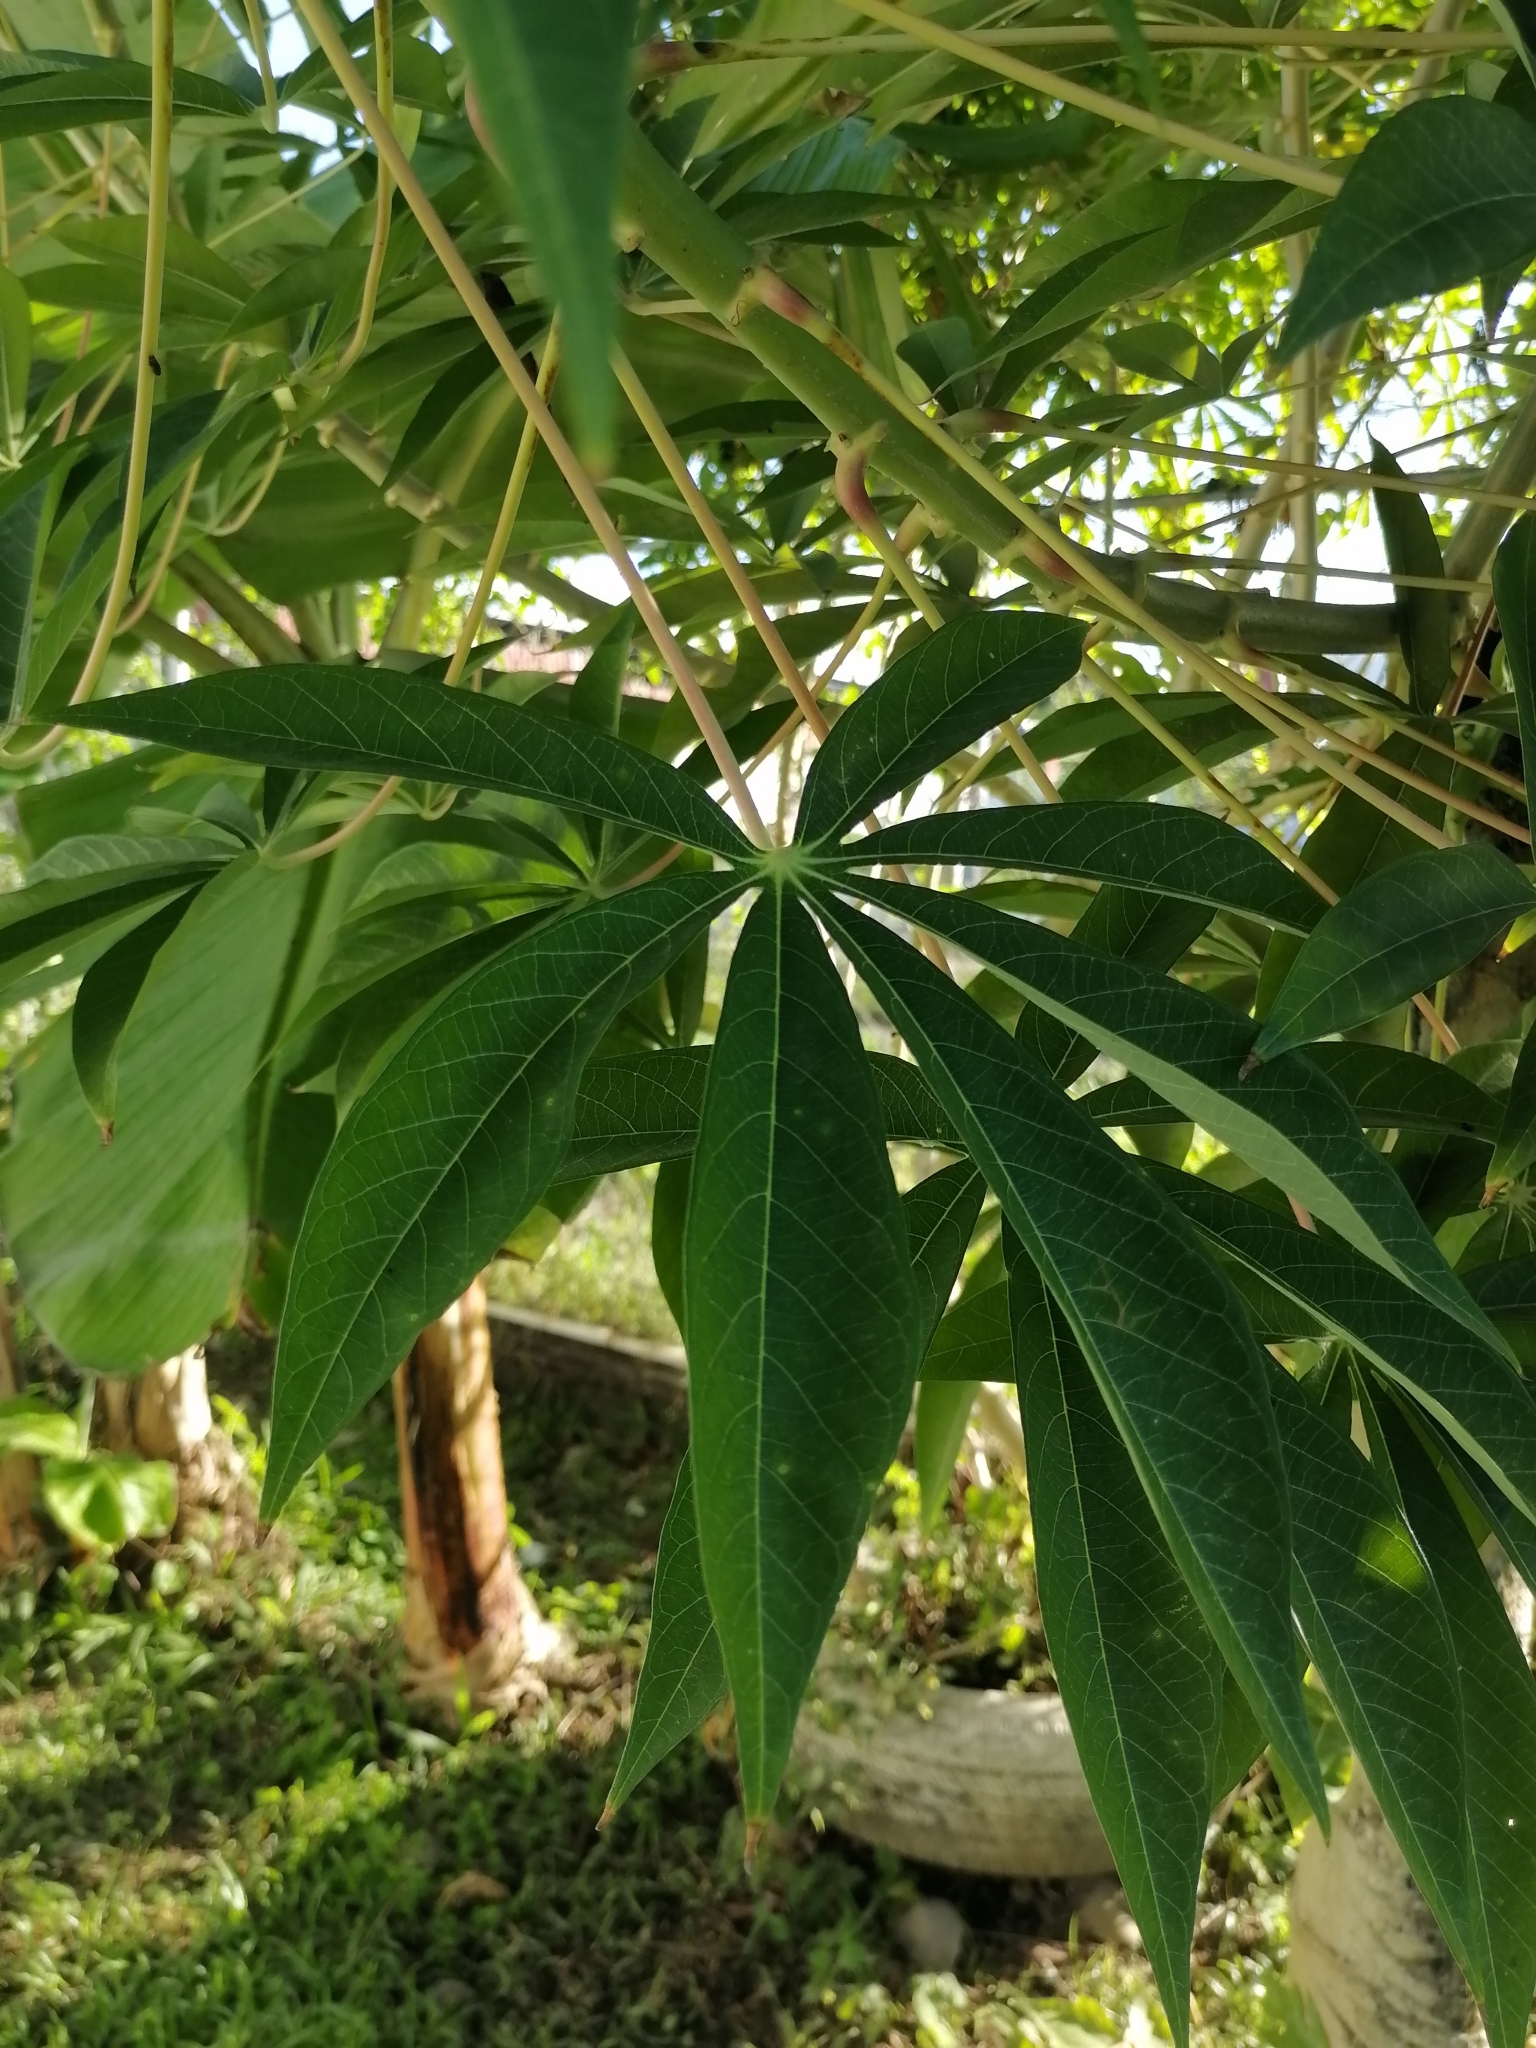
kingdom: Plantae
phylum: Tracheophyta
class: Magnoliopsida
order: Malpighiales
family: Euphorbiaceae
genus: Manihot
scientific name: Manihot esculenta
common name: Cassava
